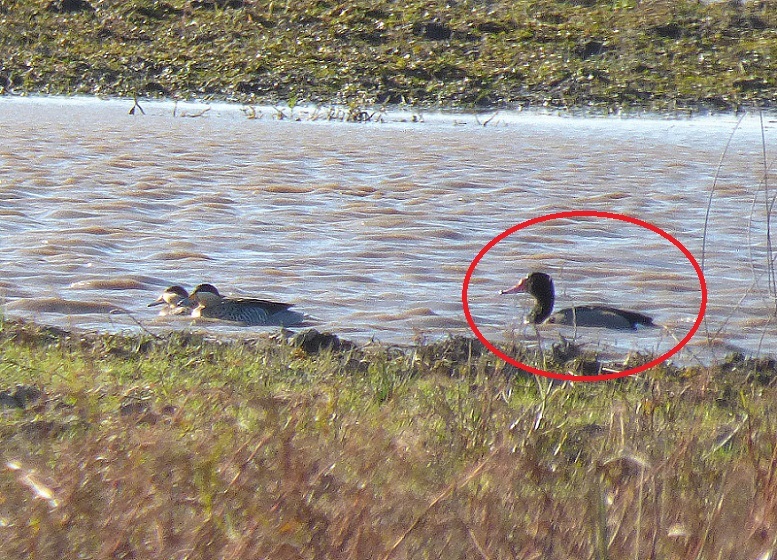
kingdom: Animalia
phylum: Chordata
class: Aves
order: Anseriformes
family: Anatidae
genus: Netta
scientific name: Netta peposaca
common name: Rosy-billed pochard
